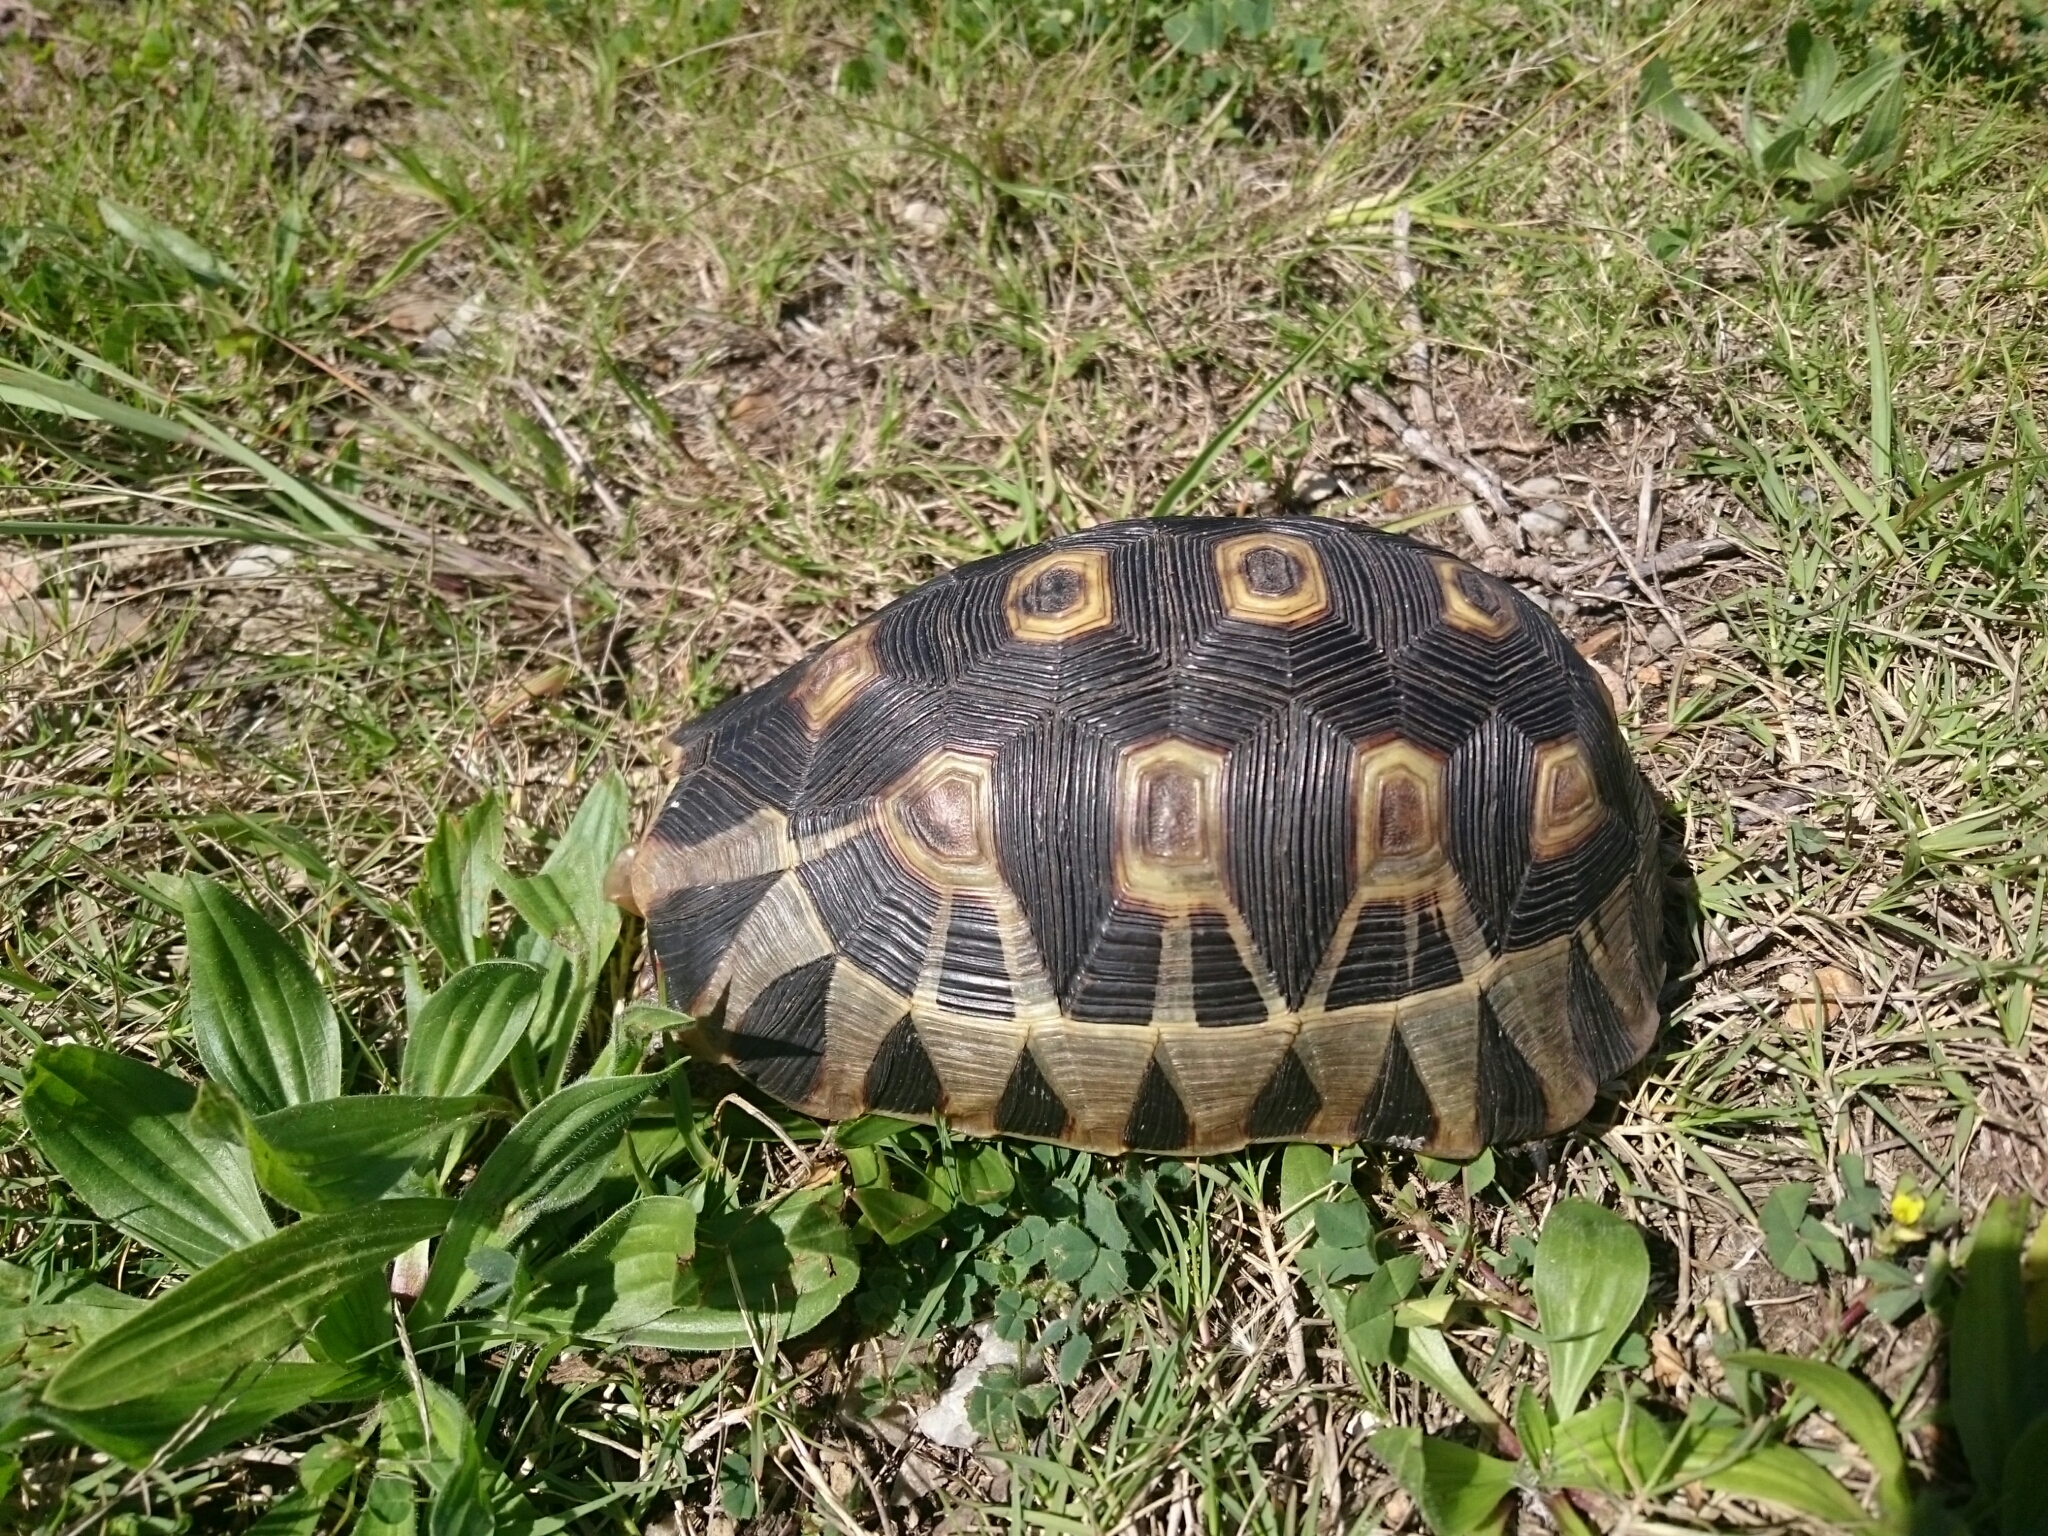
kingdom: Animalia
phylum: Chordata
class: Testudines
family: Testudinidae
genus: Chersina
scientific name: Chersina angulata
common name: South african bowsprit tortoise
